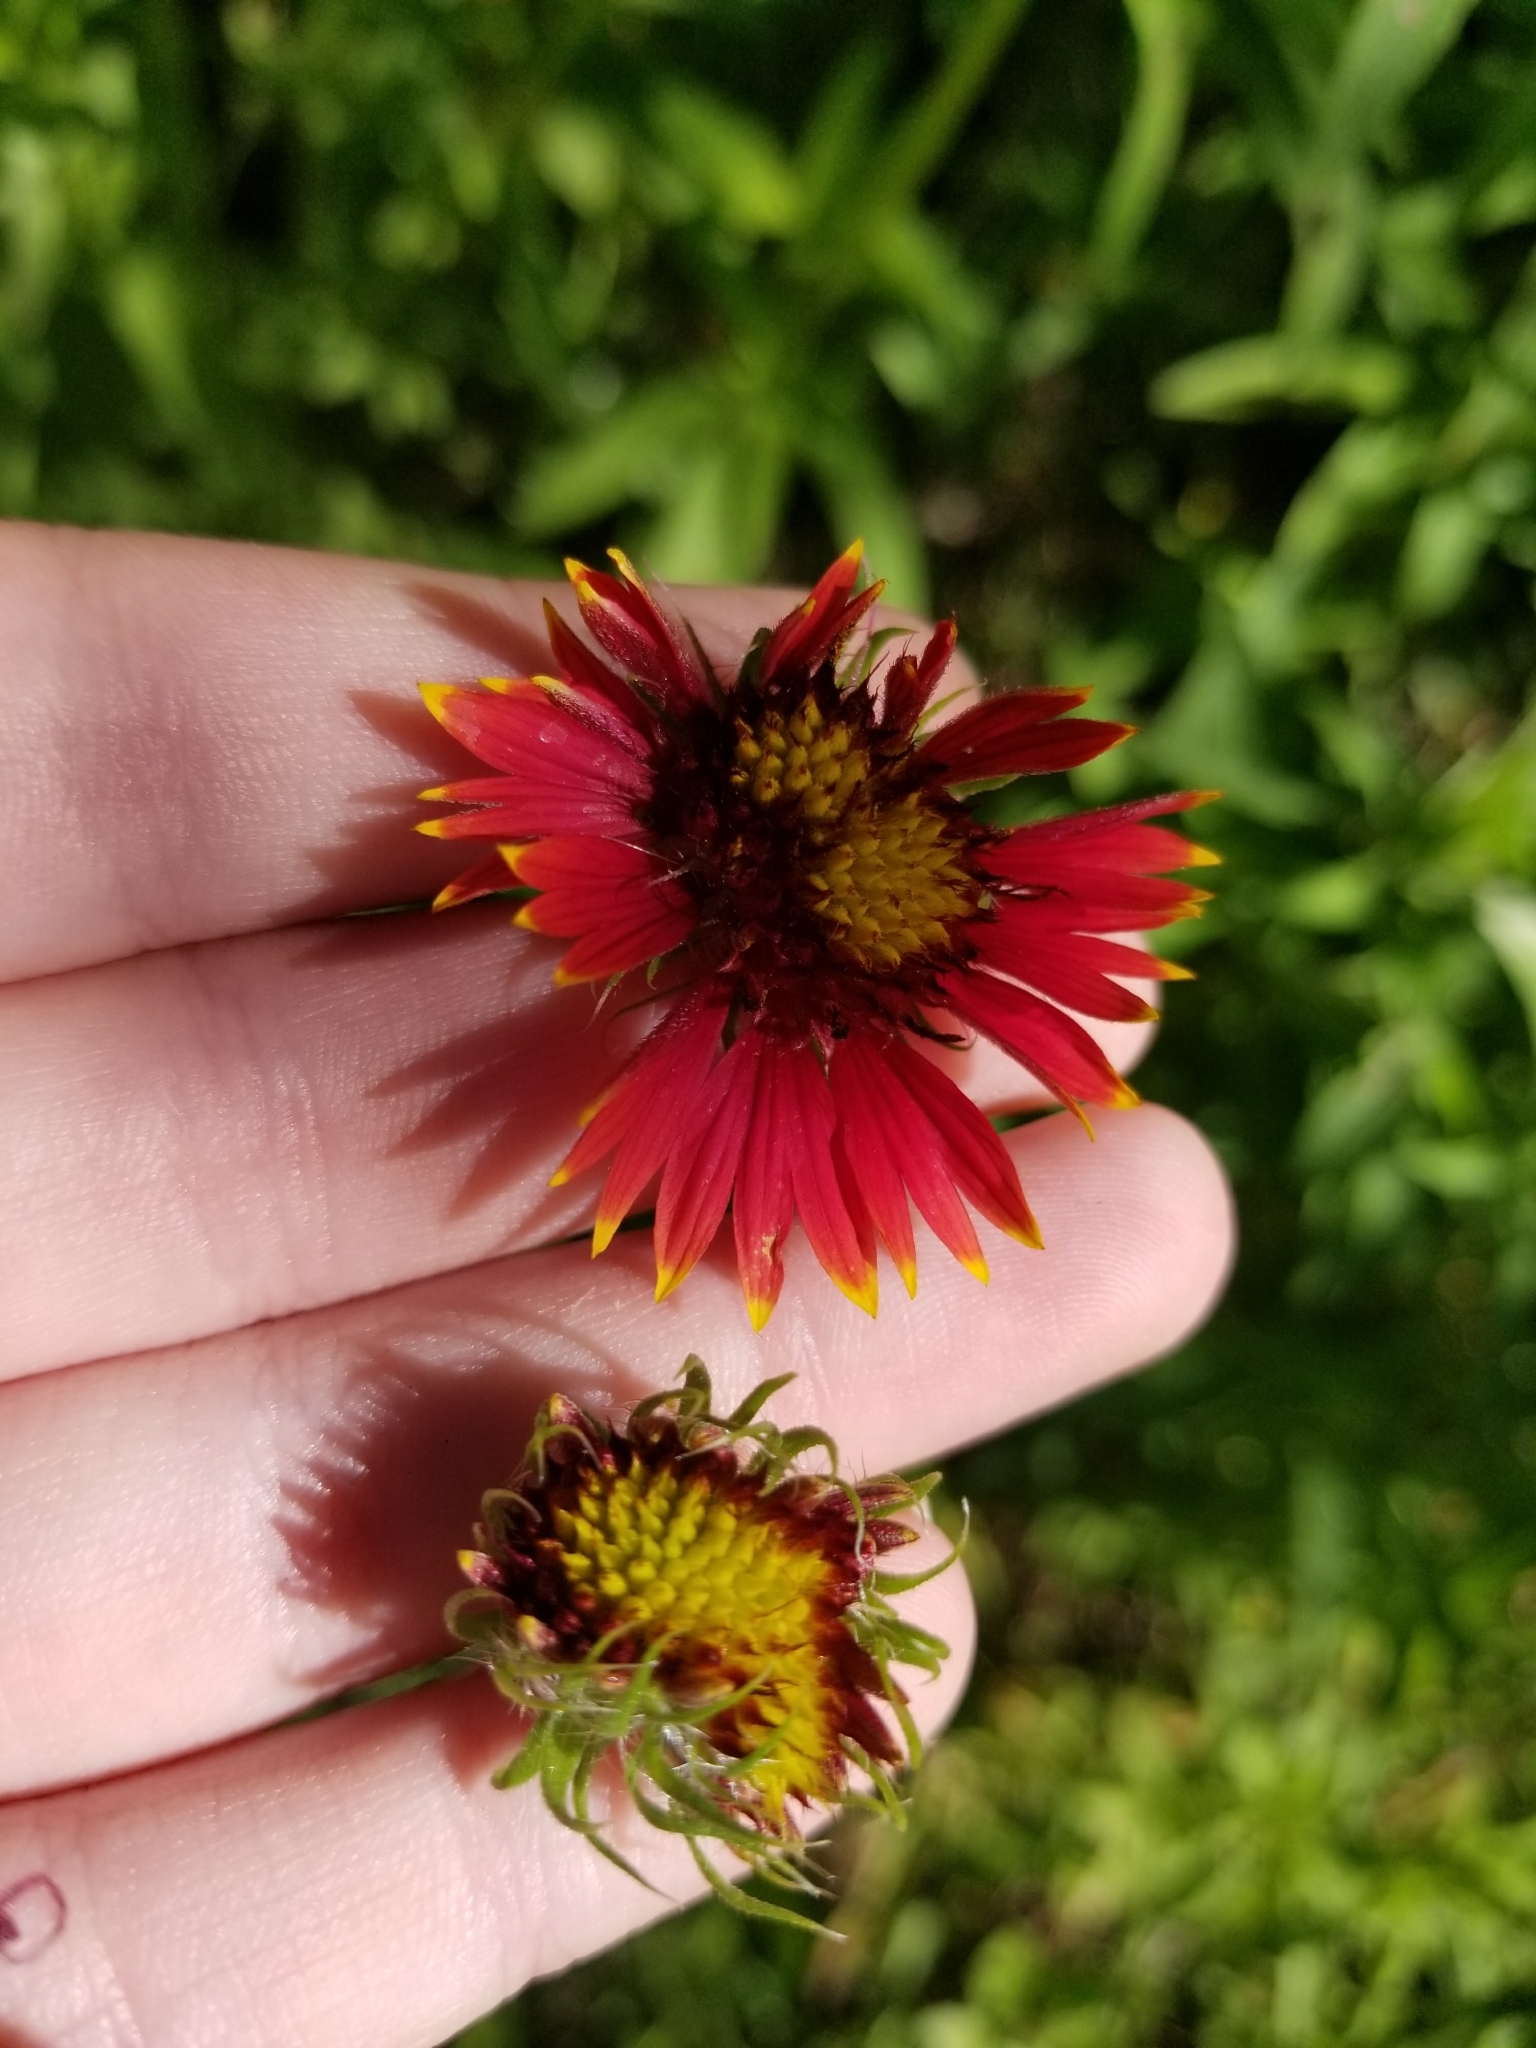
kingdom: Plantae
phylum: Tracheophyta
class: Magnoliopsida
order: Asterales
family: Asteraceae
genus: Gaillardia
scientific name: Gaillardia pulchella
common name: Firewheel
